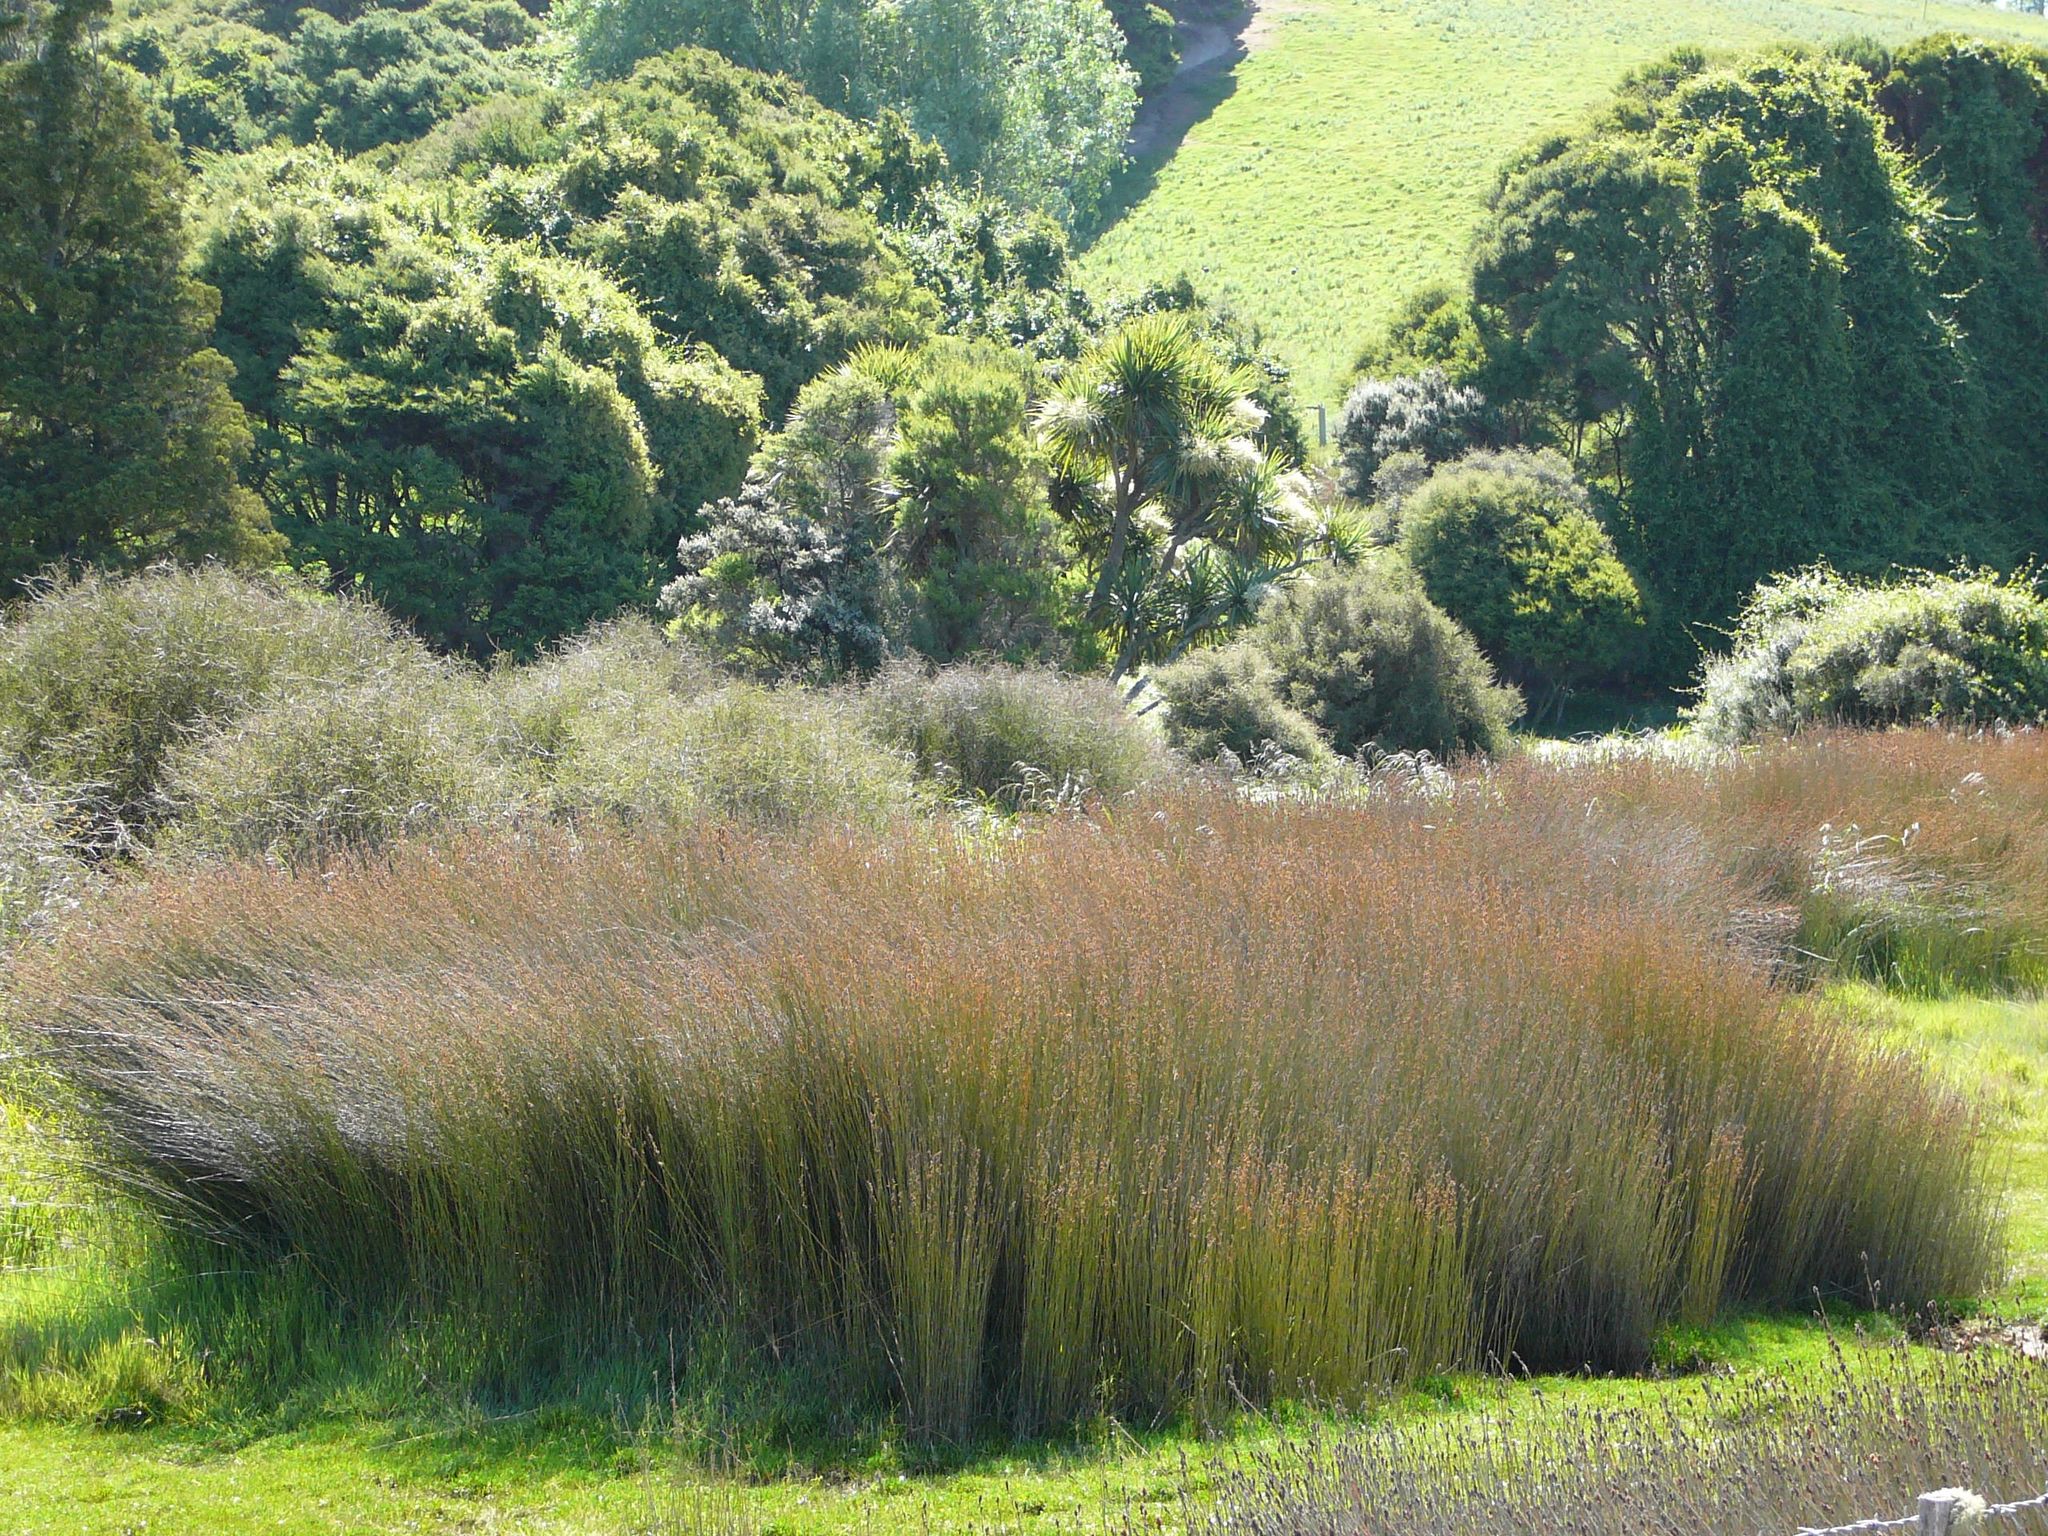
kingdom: Plantae
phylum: Tracheophyta
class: Liliopsida
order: Poales
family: Restionaceae
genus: Apodasmia
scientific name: Apodasmia similis
